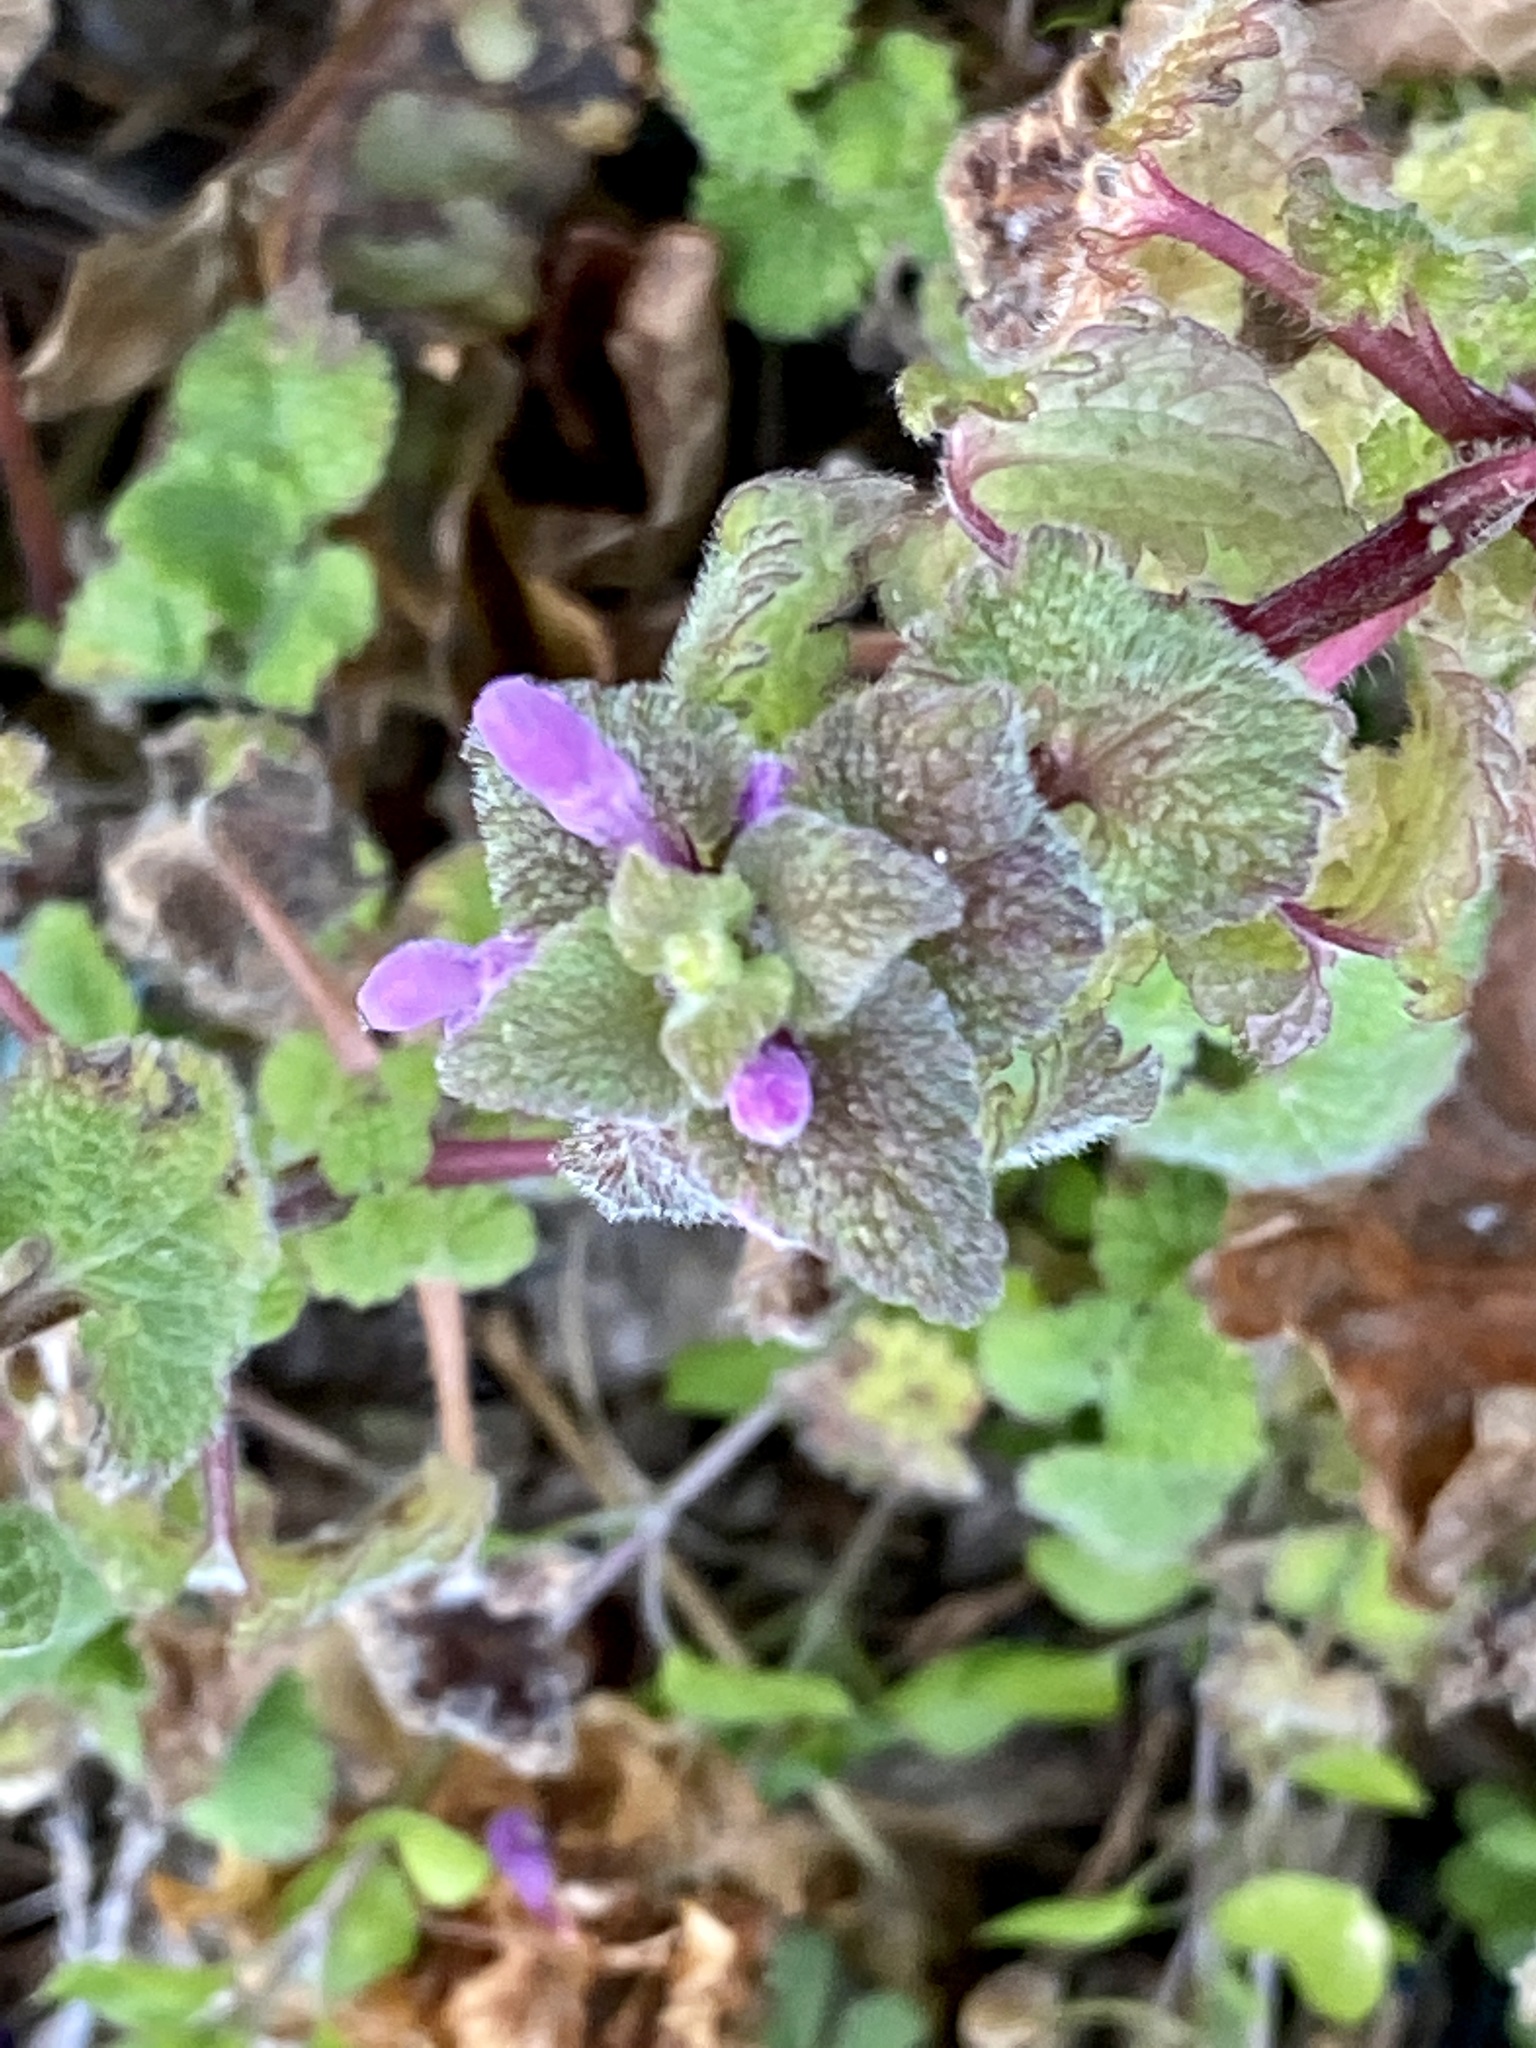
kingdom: Plantae
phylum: Tracheophyta
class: Magnoliopsida
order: Lamiales
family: Lamiaceae
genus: Lamium
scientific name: Lamium purpureum
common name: Red dead-nettle
